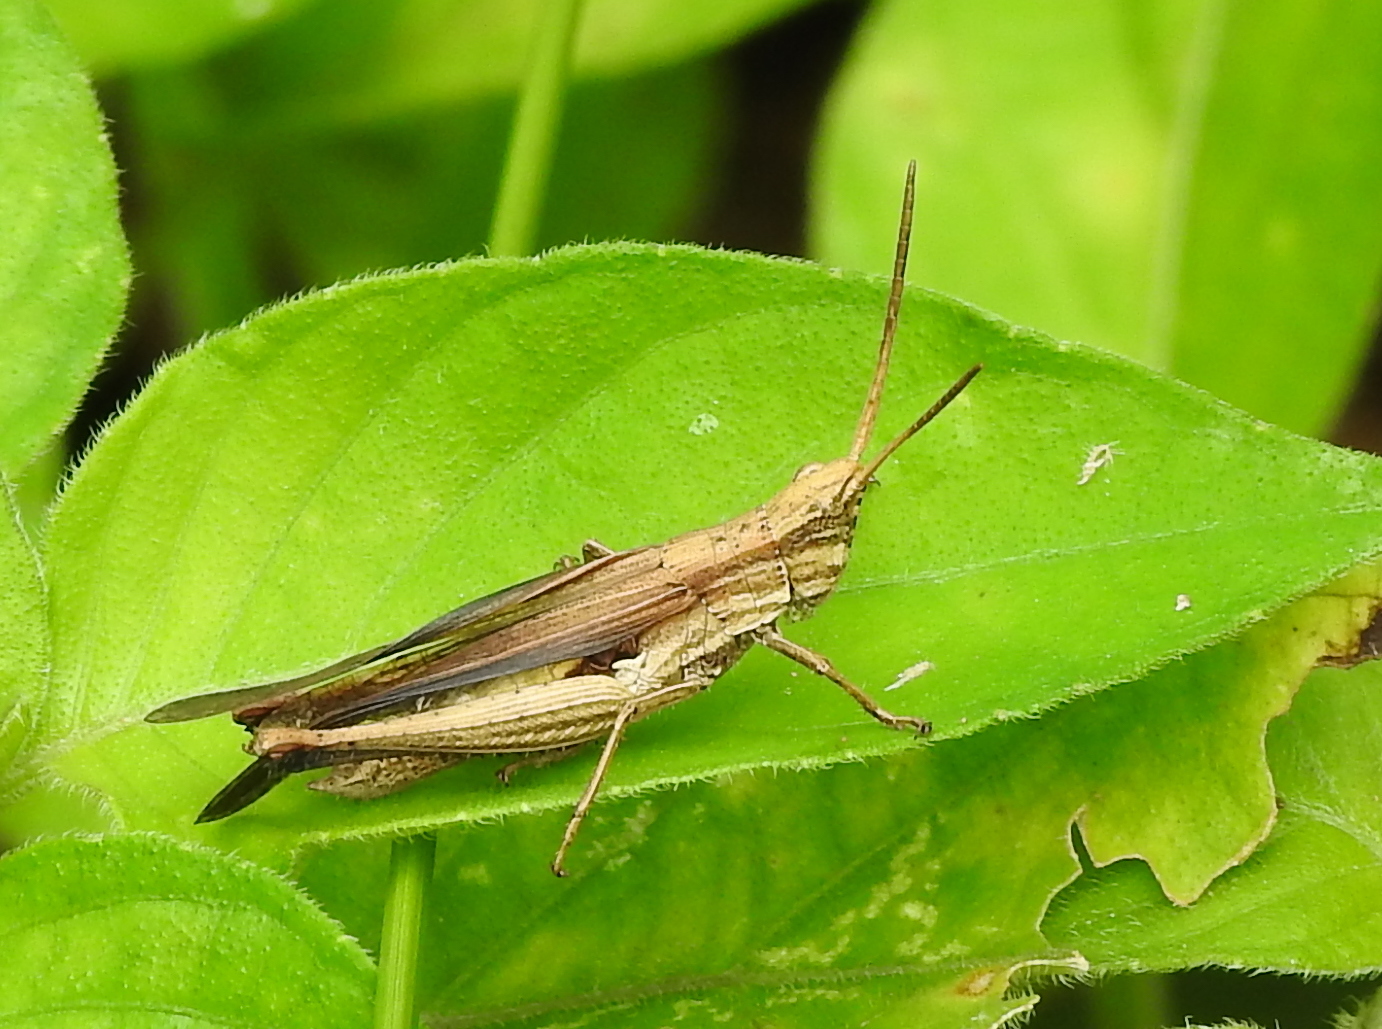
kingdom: Animalia
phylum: Arthropoda
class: Insecta
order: Orthoptera
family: Acrididae
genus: Phlaeoba
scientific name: Phlaeoba infumata
